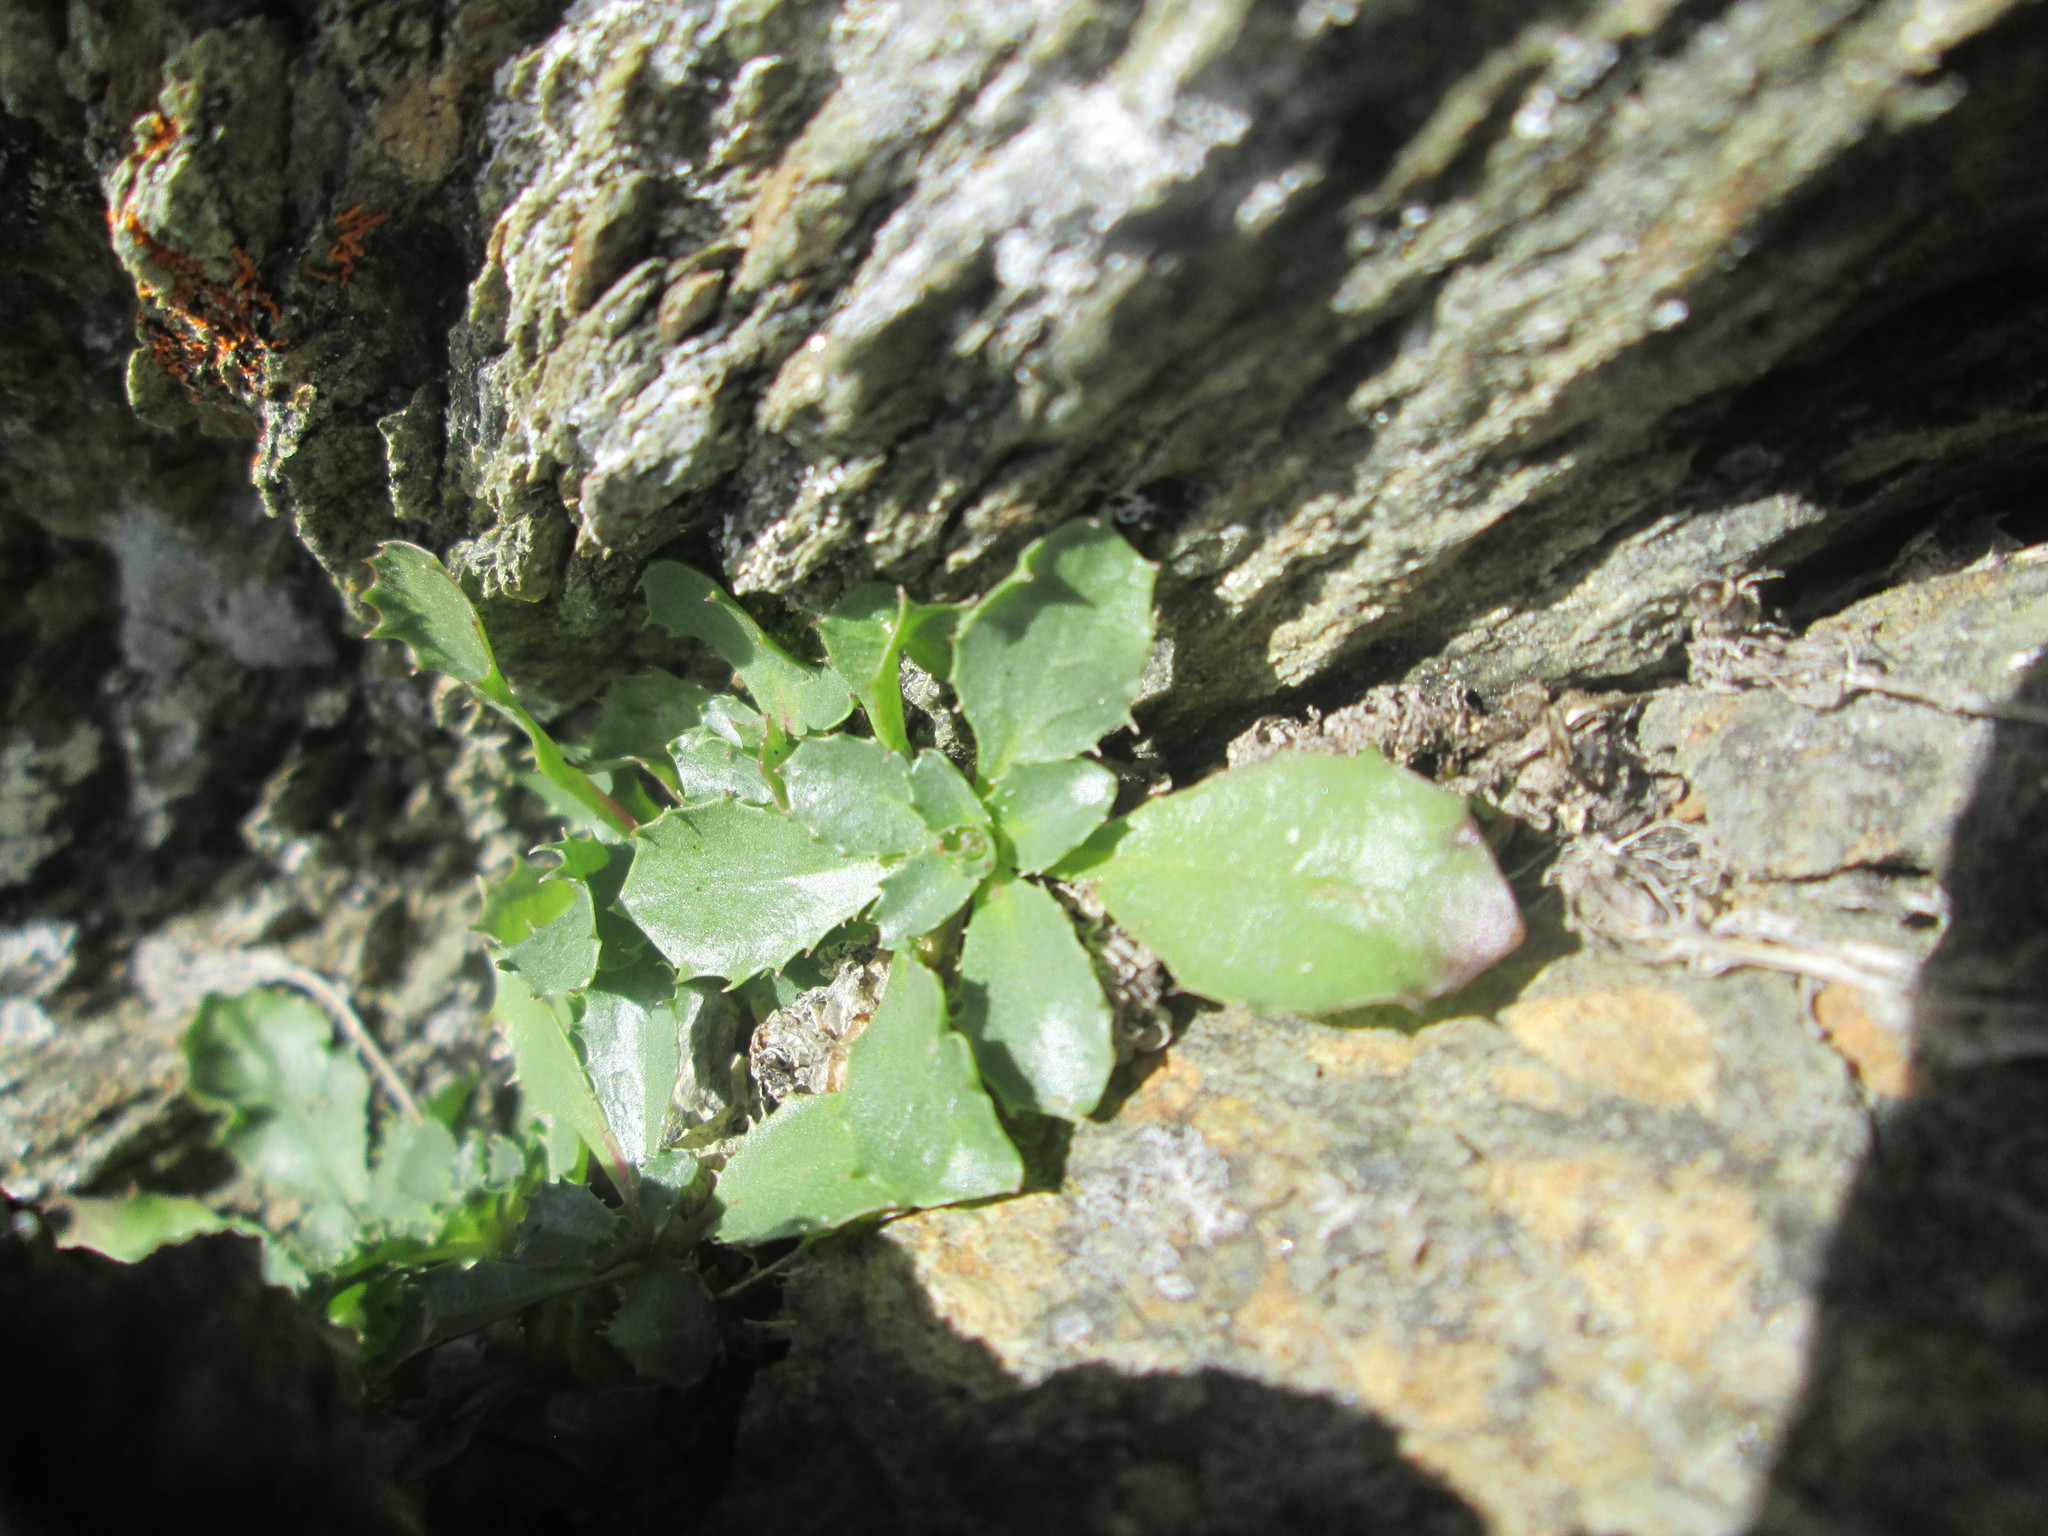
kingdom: Plantae
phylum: Tracheophyta
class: Magnoliopsida
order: Asterales
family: Campanulaceae
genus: Campanula
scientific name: Campanula piperi
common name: Olympic bellflower
